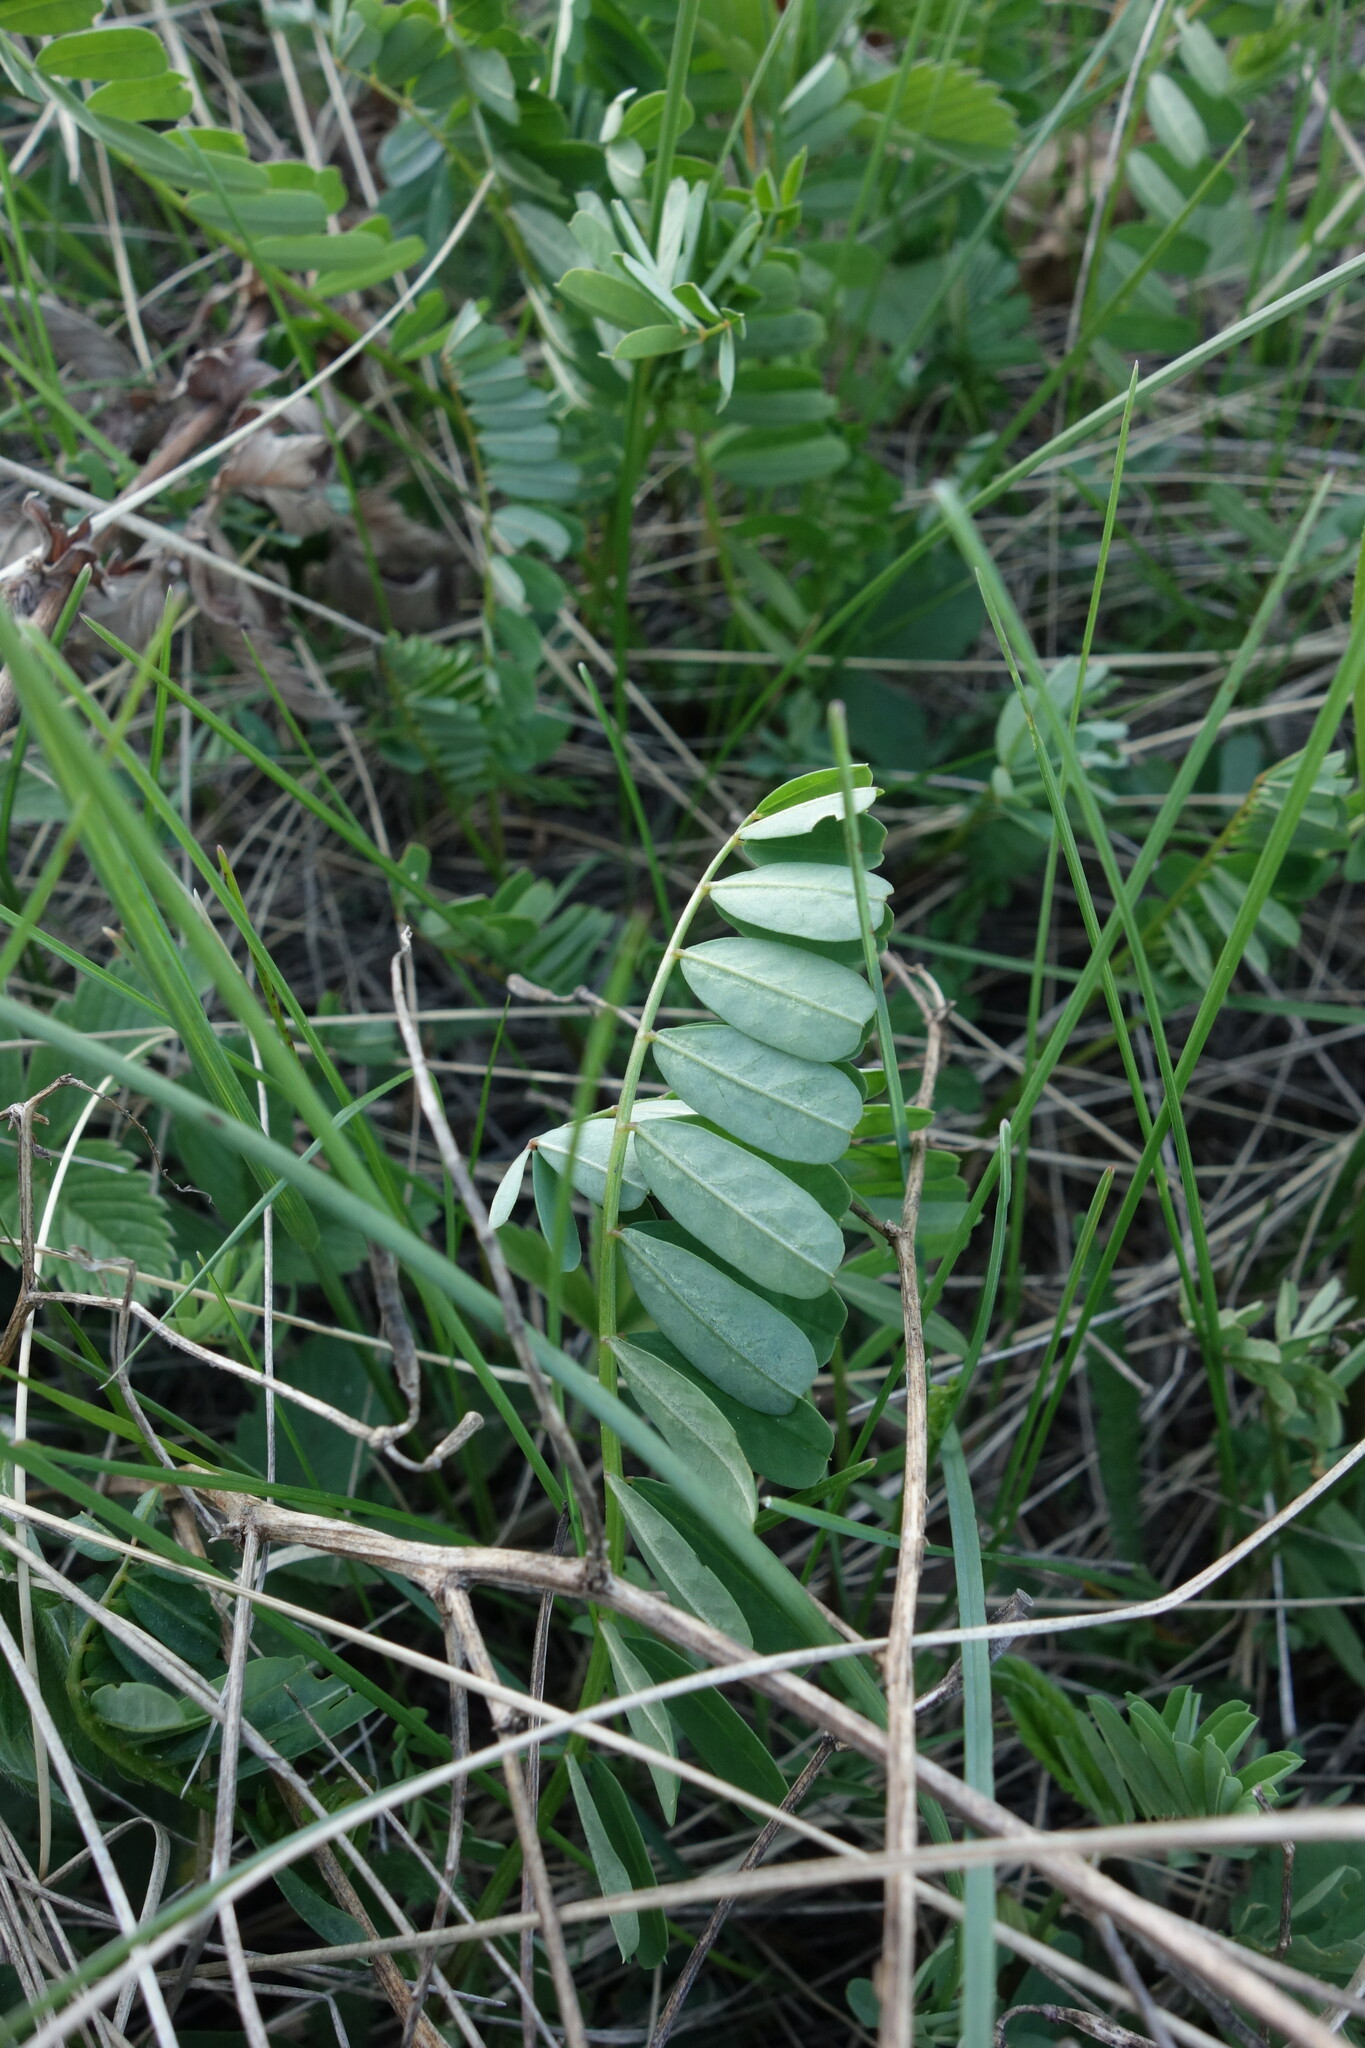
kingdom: Plantae
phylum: Tracheophyta
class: Magnoliopsida
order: Fabales
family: Fabaceae
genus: Coronilla
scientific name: Coronilla varia
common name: Crownvetch
